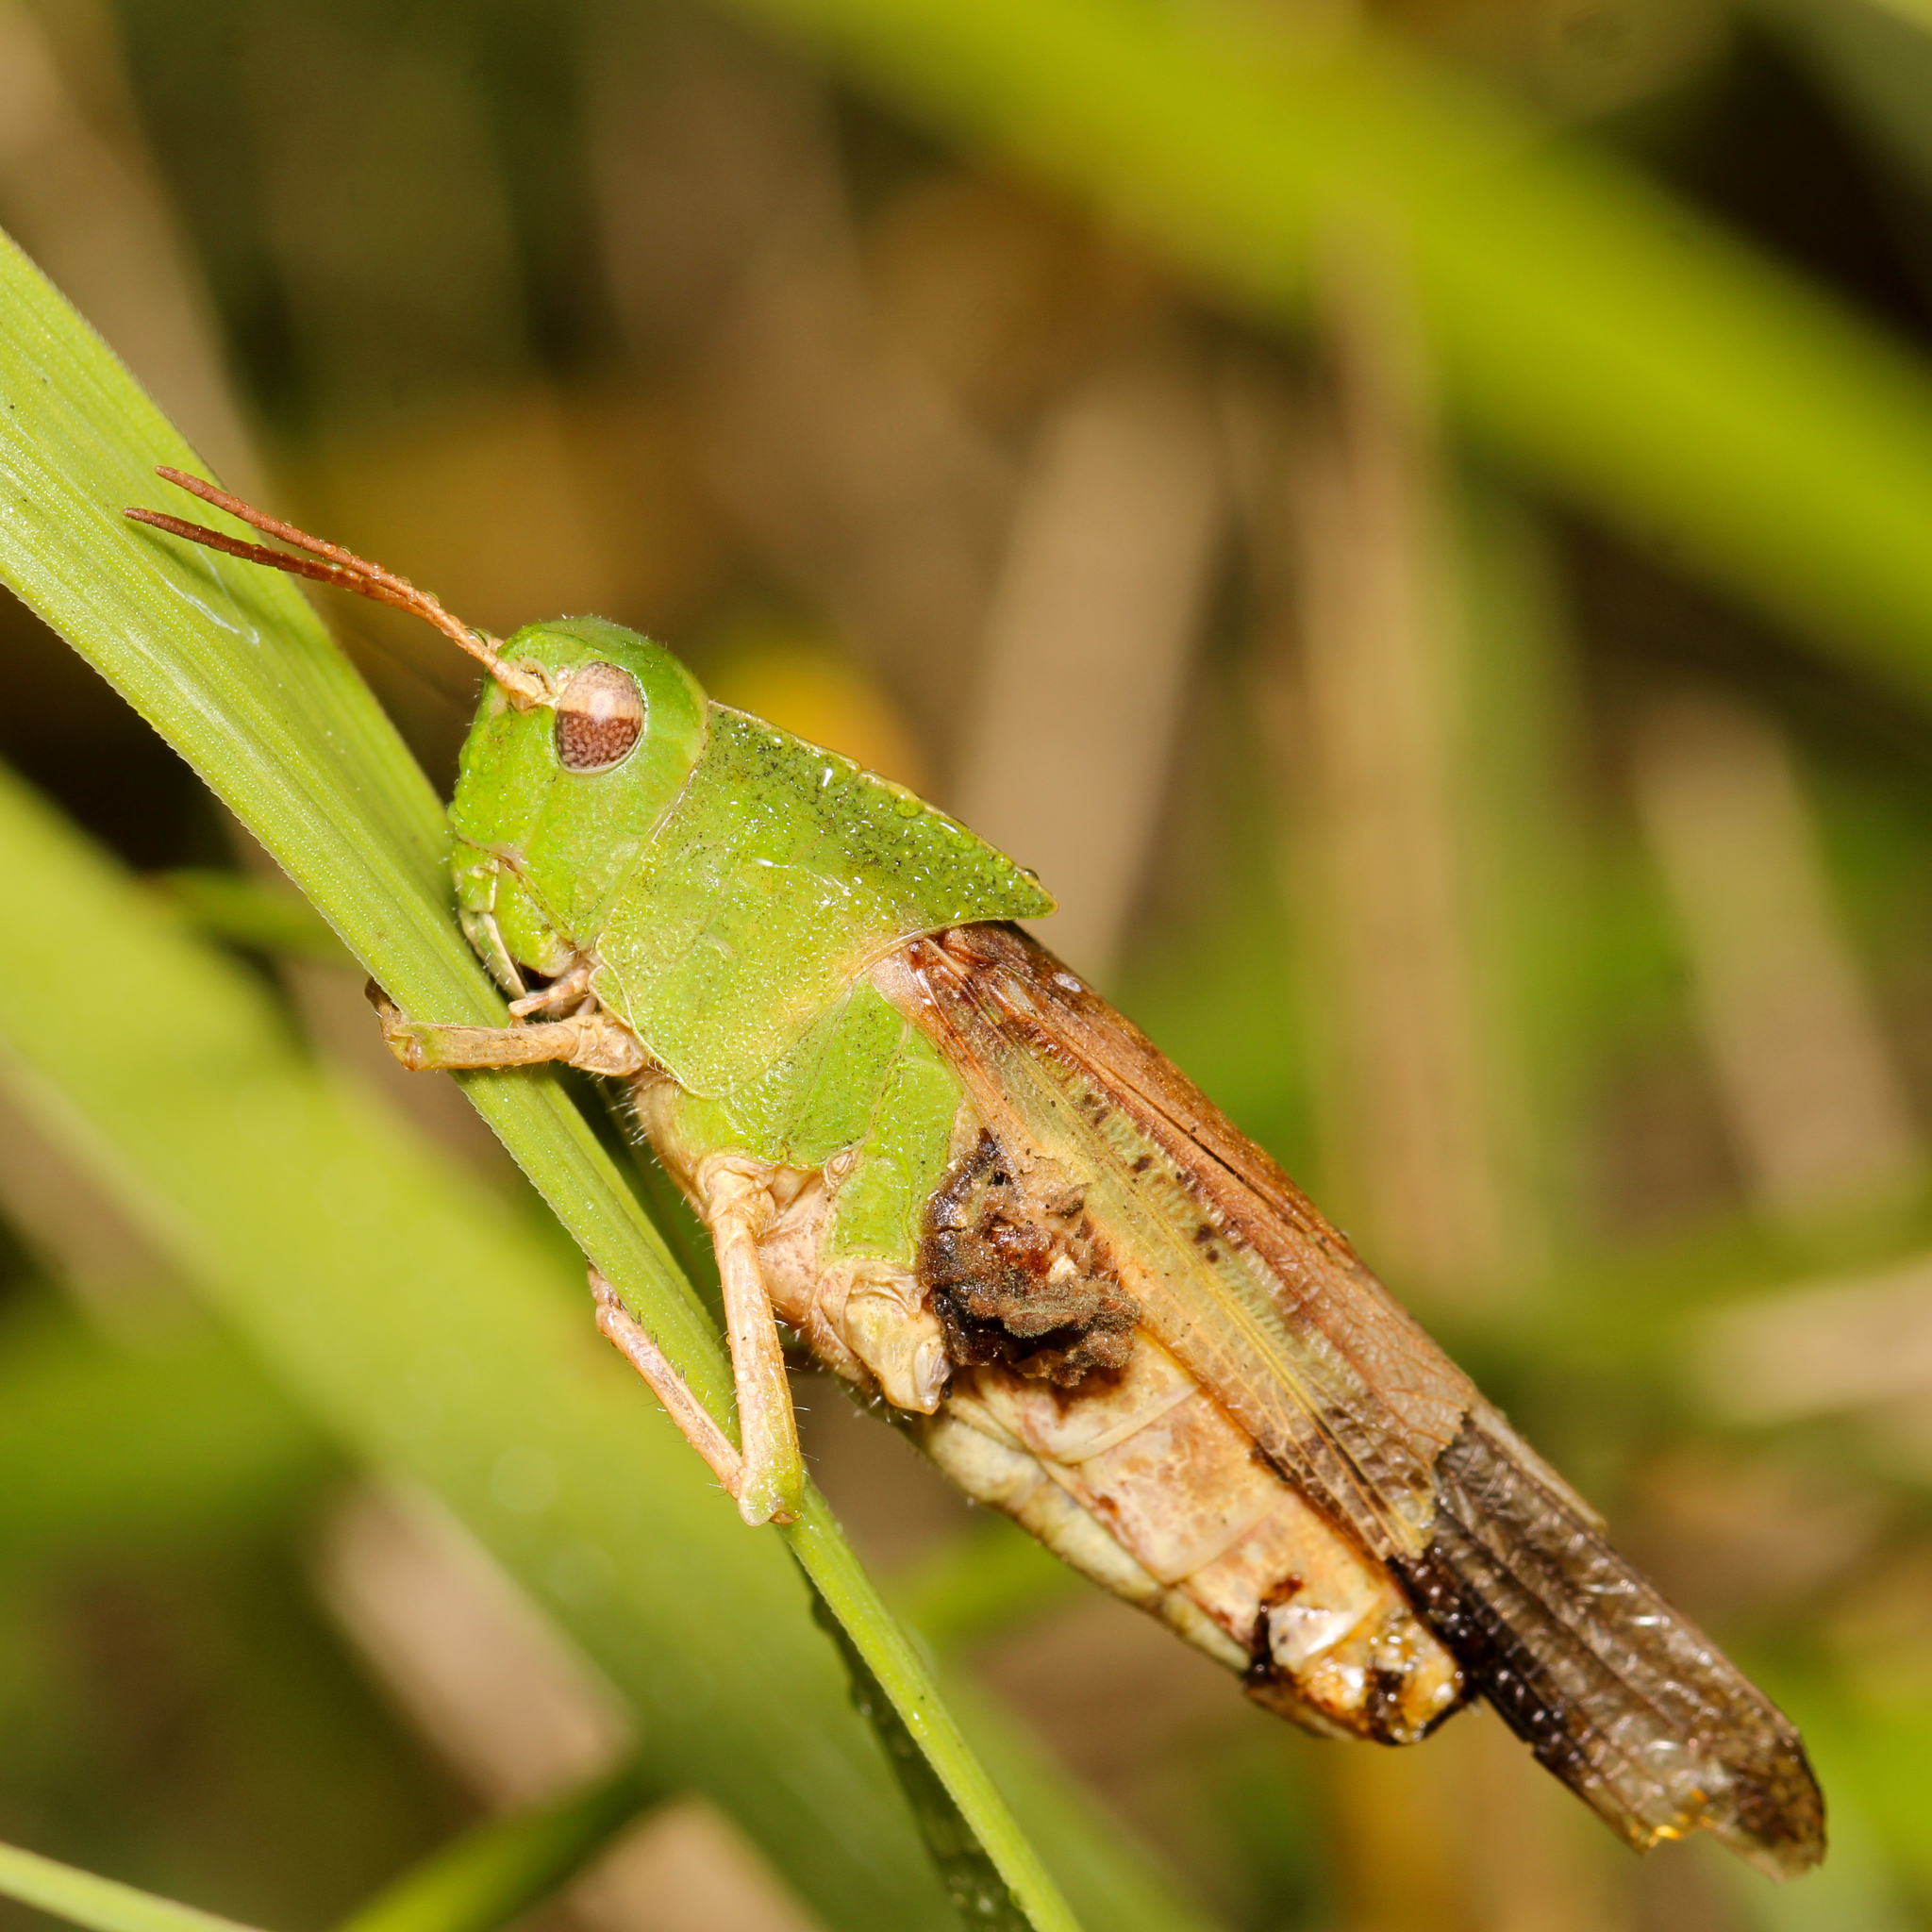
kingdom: Animalia
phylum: Arthropoda
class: Insecta
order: Orthoptera
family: Acrididae
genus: Chortophaga
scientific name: Chortophaga viridifasciata
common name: Green-striped grasshopper
